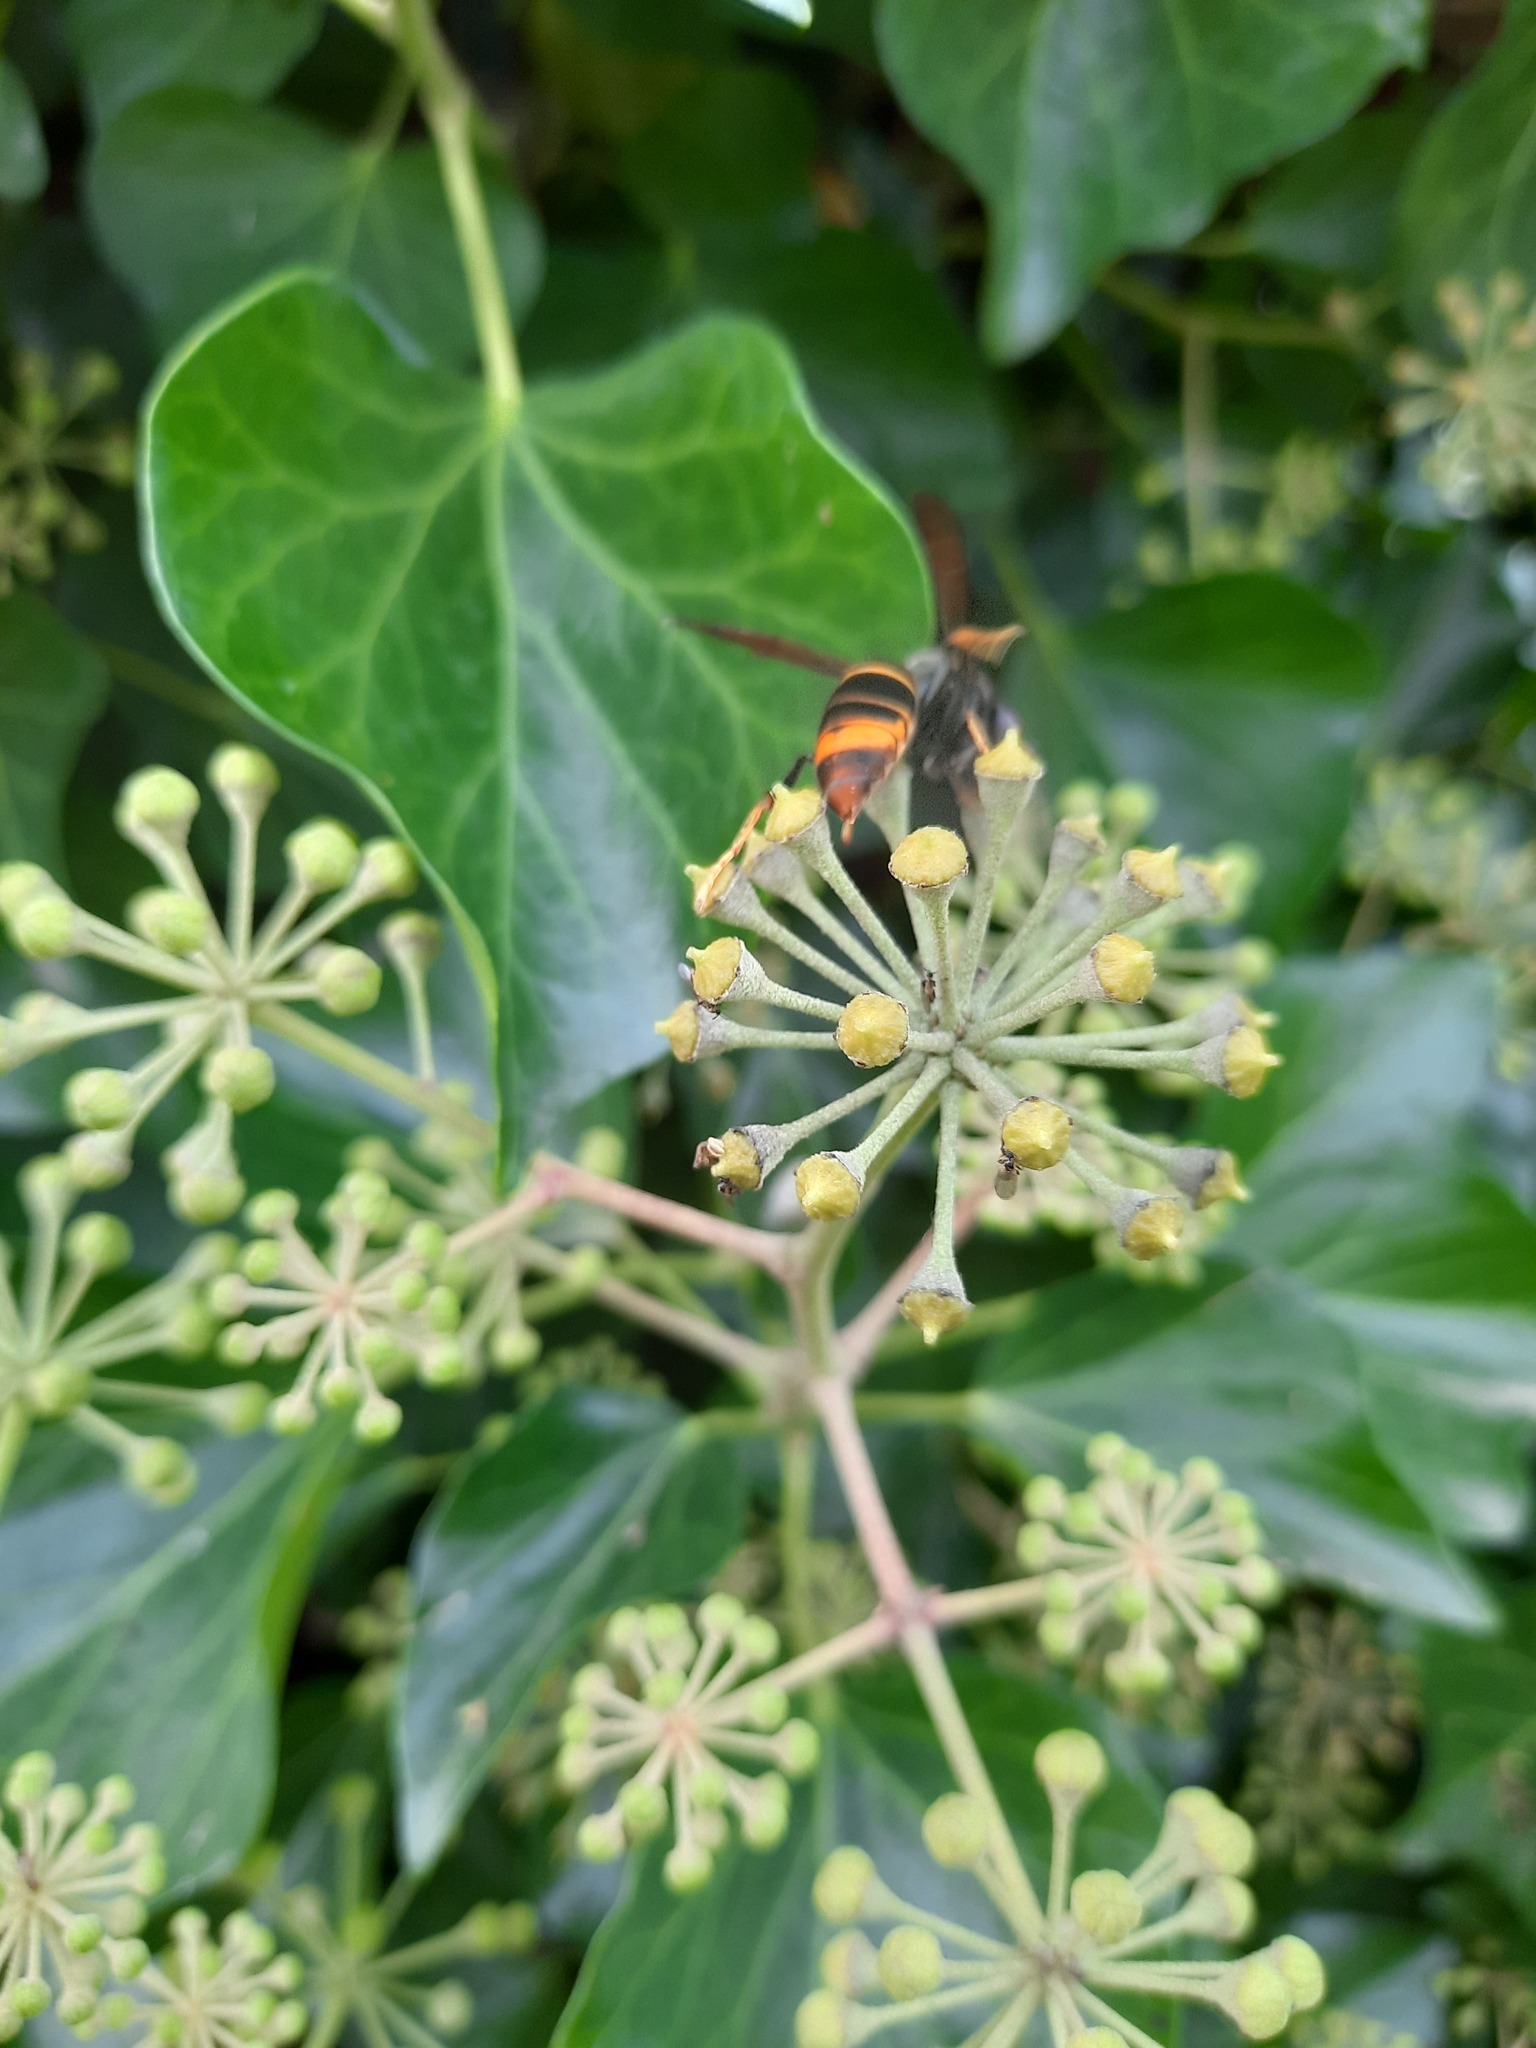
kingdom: Animalia
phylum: Arthropoda
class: Insecta
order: Hymenoptera
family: Vespidae
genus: Vespa
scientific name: Vespa velutina
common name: Asian hornet
